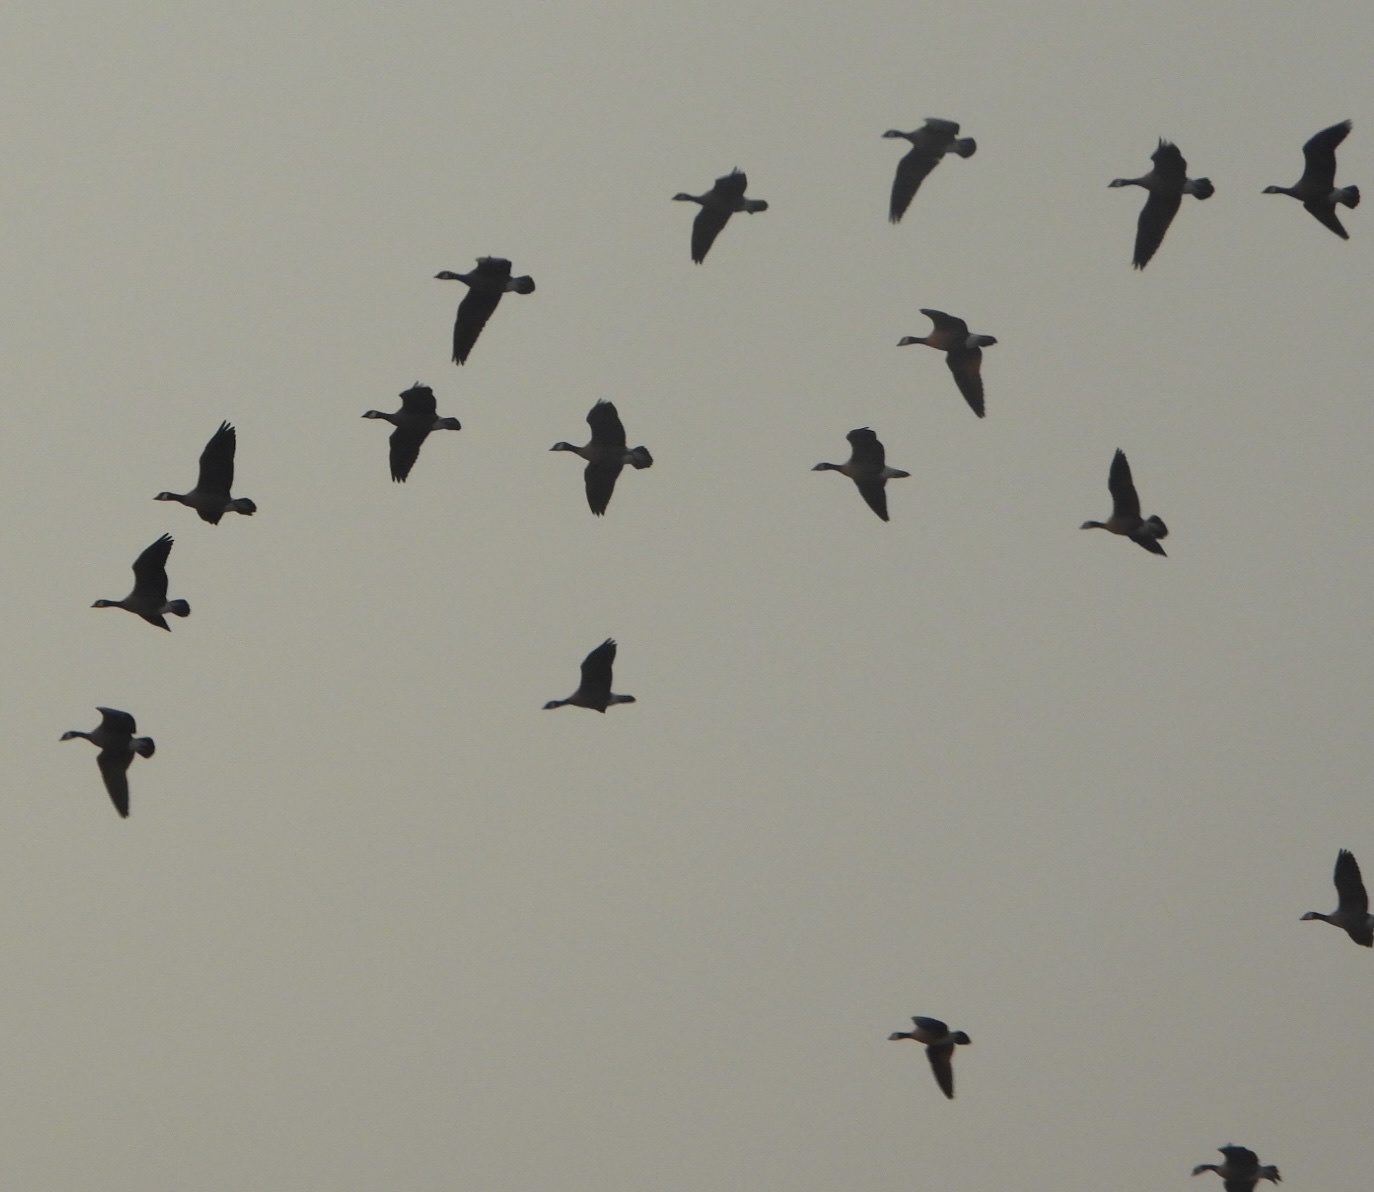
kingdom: Animalia
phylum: Chordata
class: Aves
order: Anseriformes
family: Anatidae
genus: Branta
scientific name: Branta hutchinsii
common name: Cackling goose
